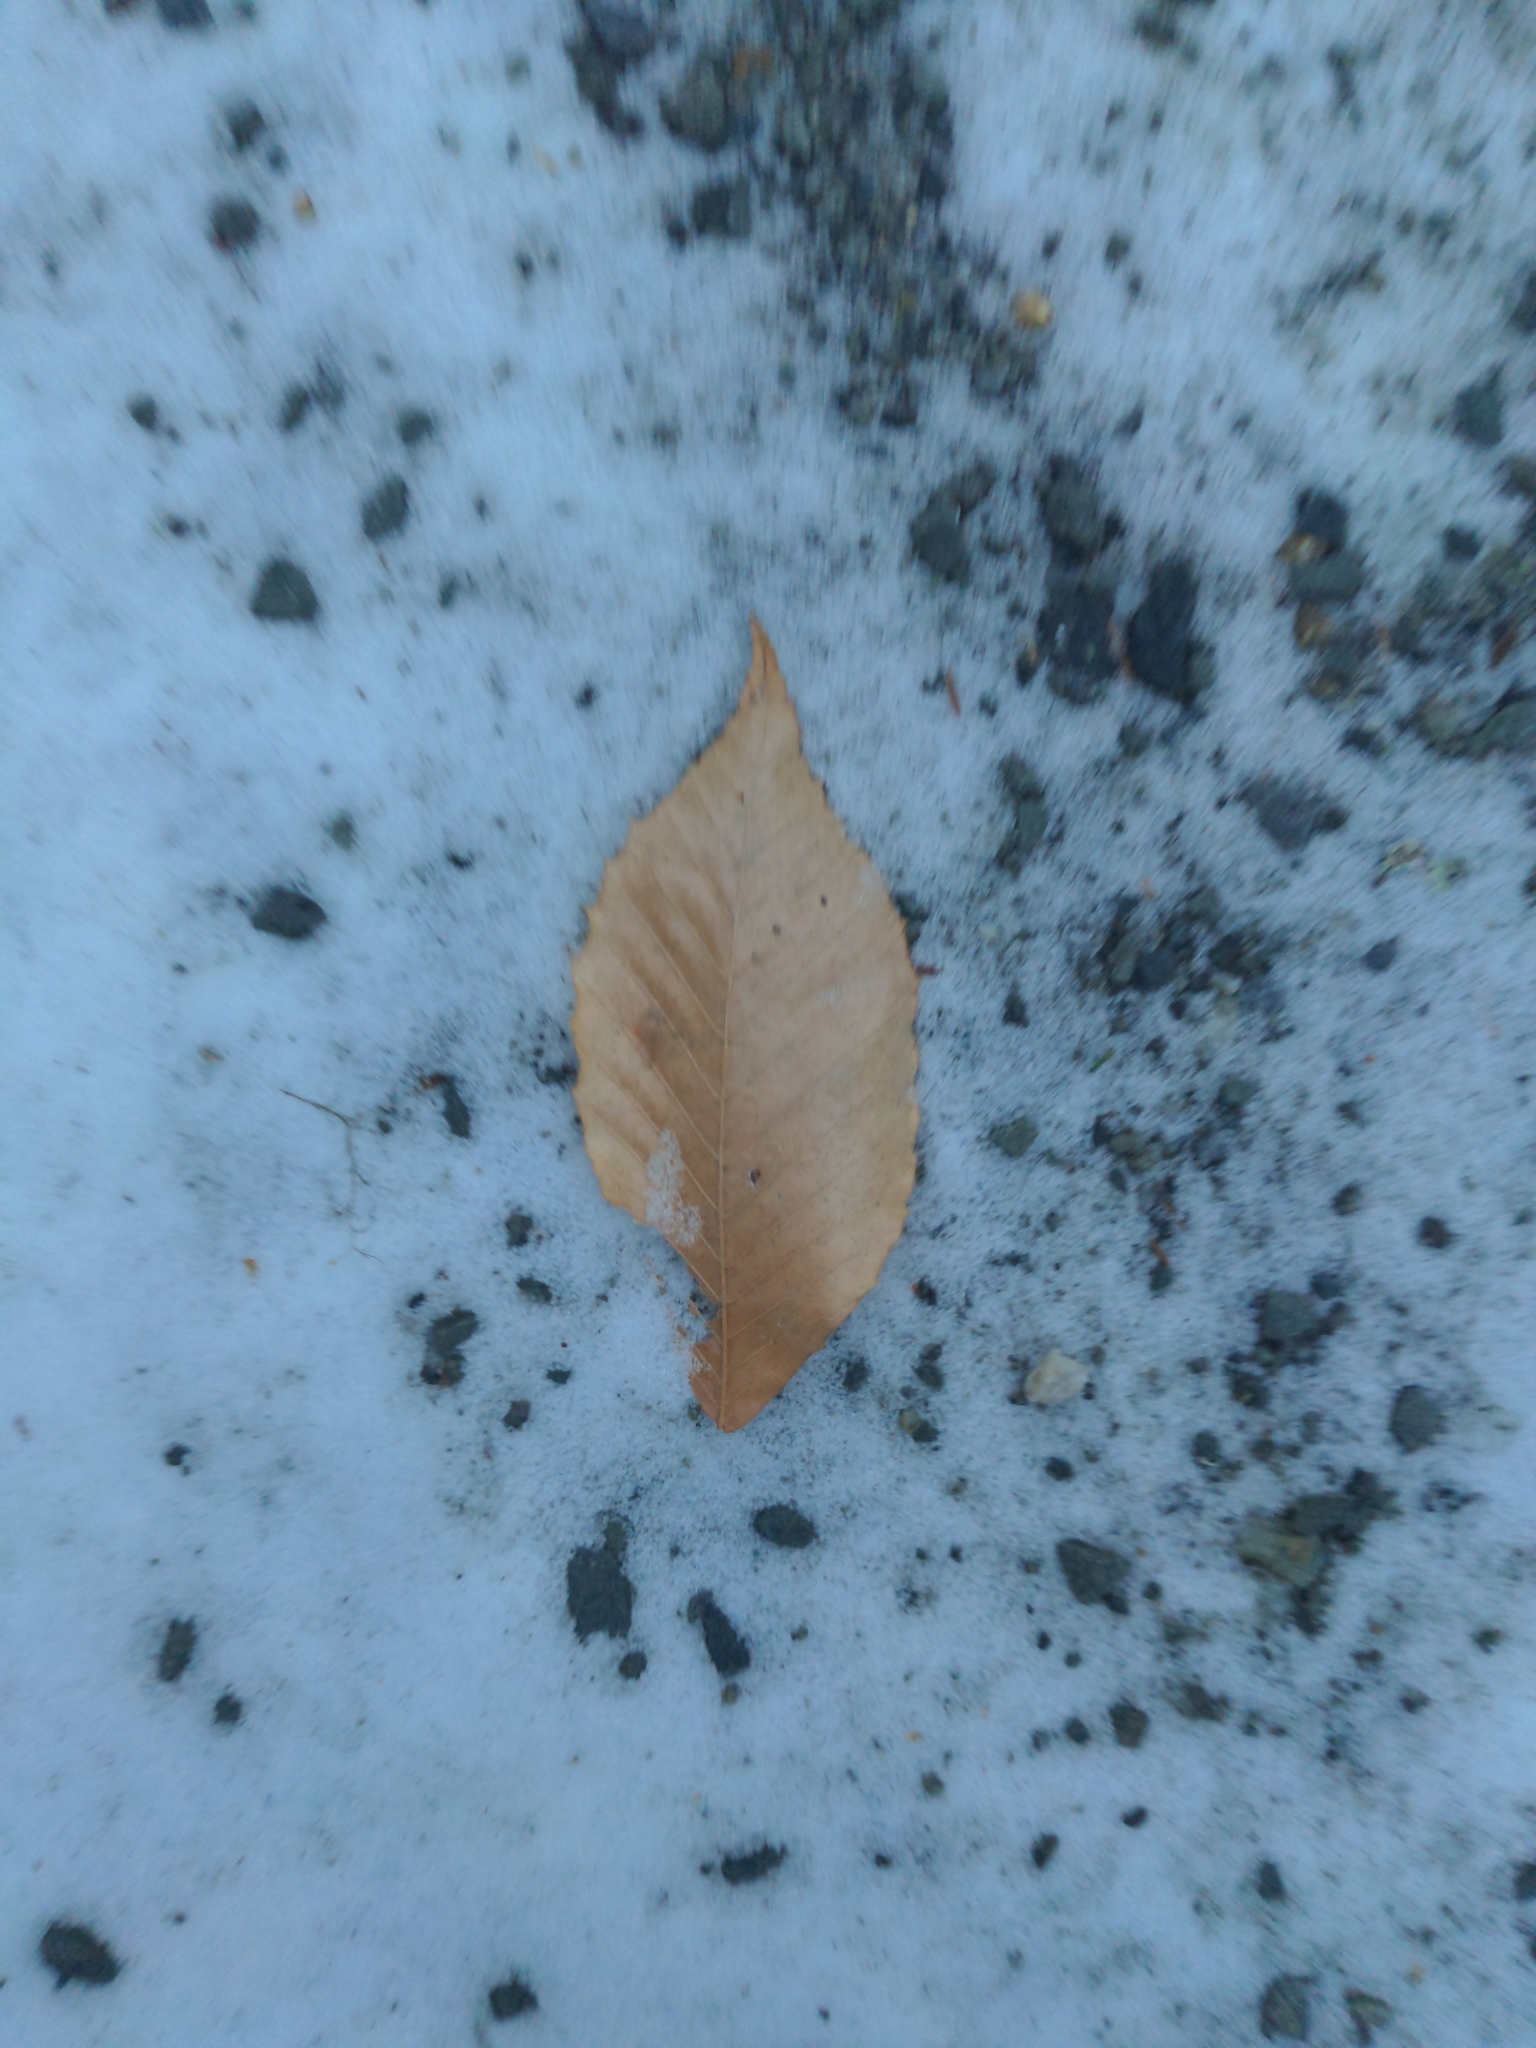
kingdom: Plantae
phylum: Tracheophyta
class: Magnoliopsida
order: Fagales
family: Fagaceae
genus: Fagus
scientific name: Fagus grandifolia
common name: American beech
